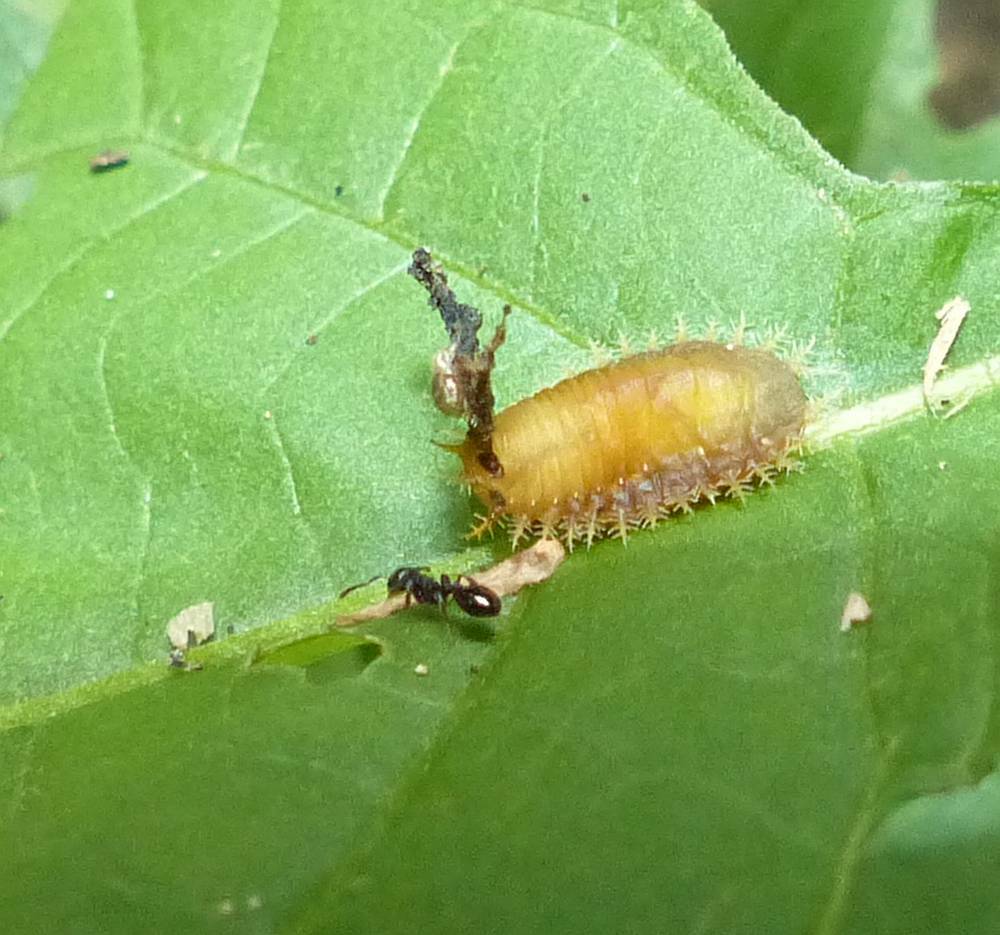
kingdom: Animalia
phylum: Arthropoda
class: Insecta
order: Coleoptera
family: Chrysomelidae
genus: Helocassis
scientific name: Helocassis clavata
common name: Clavate tortoise beetle
